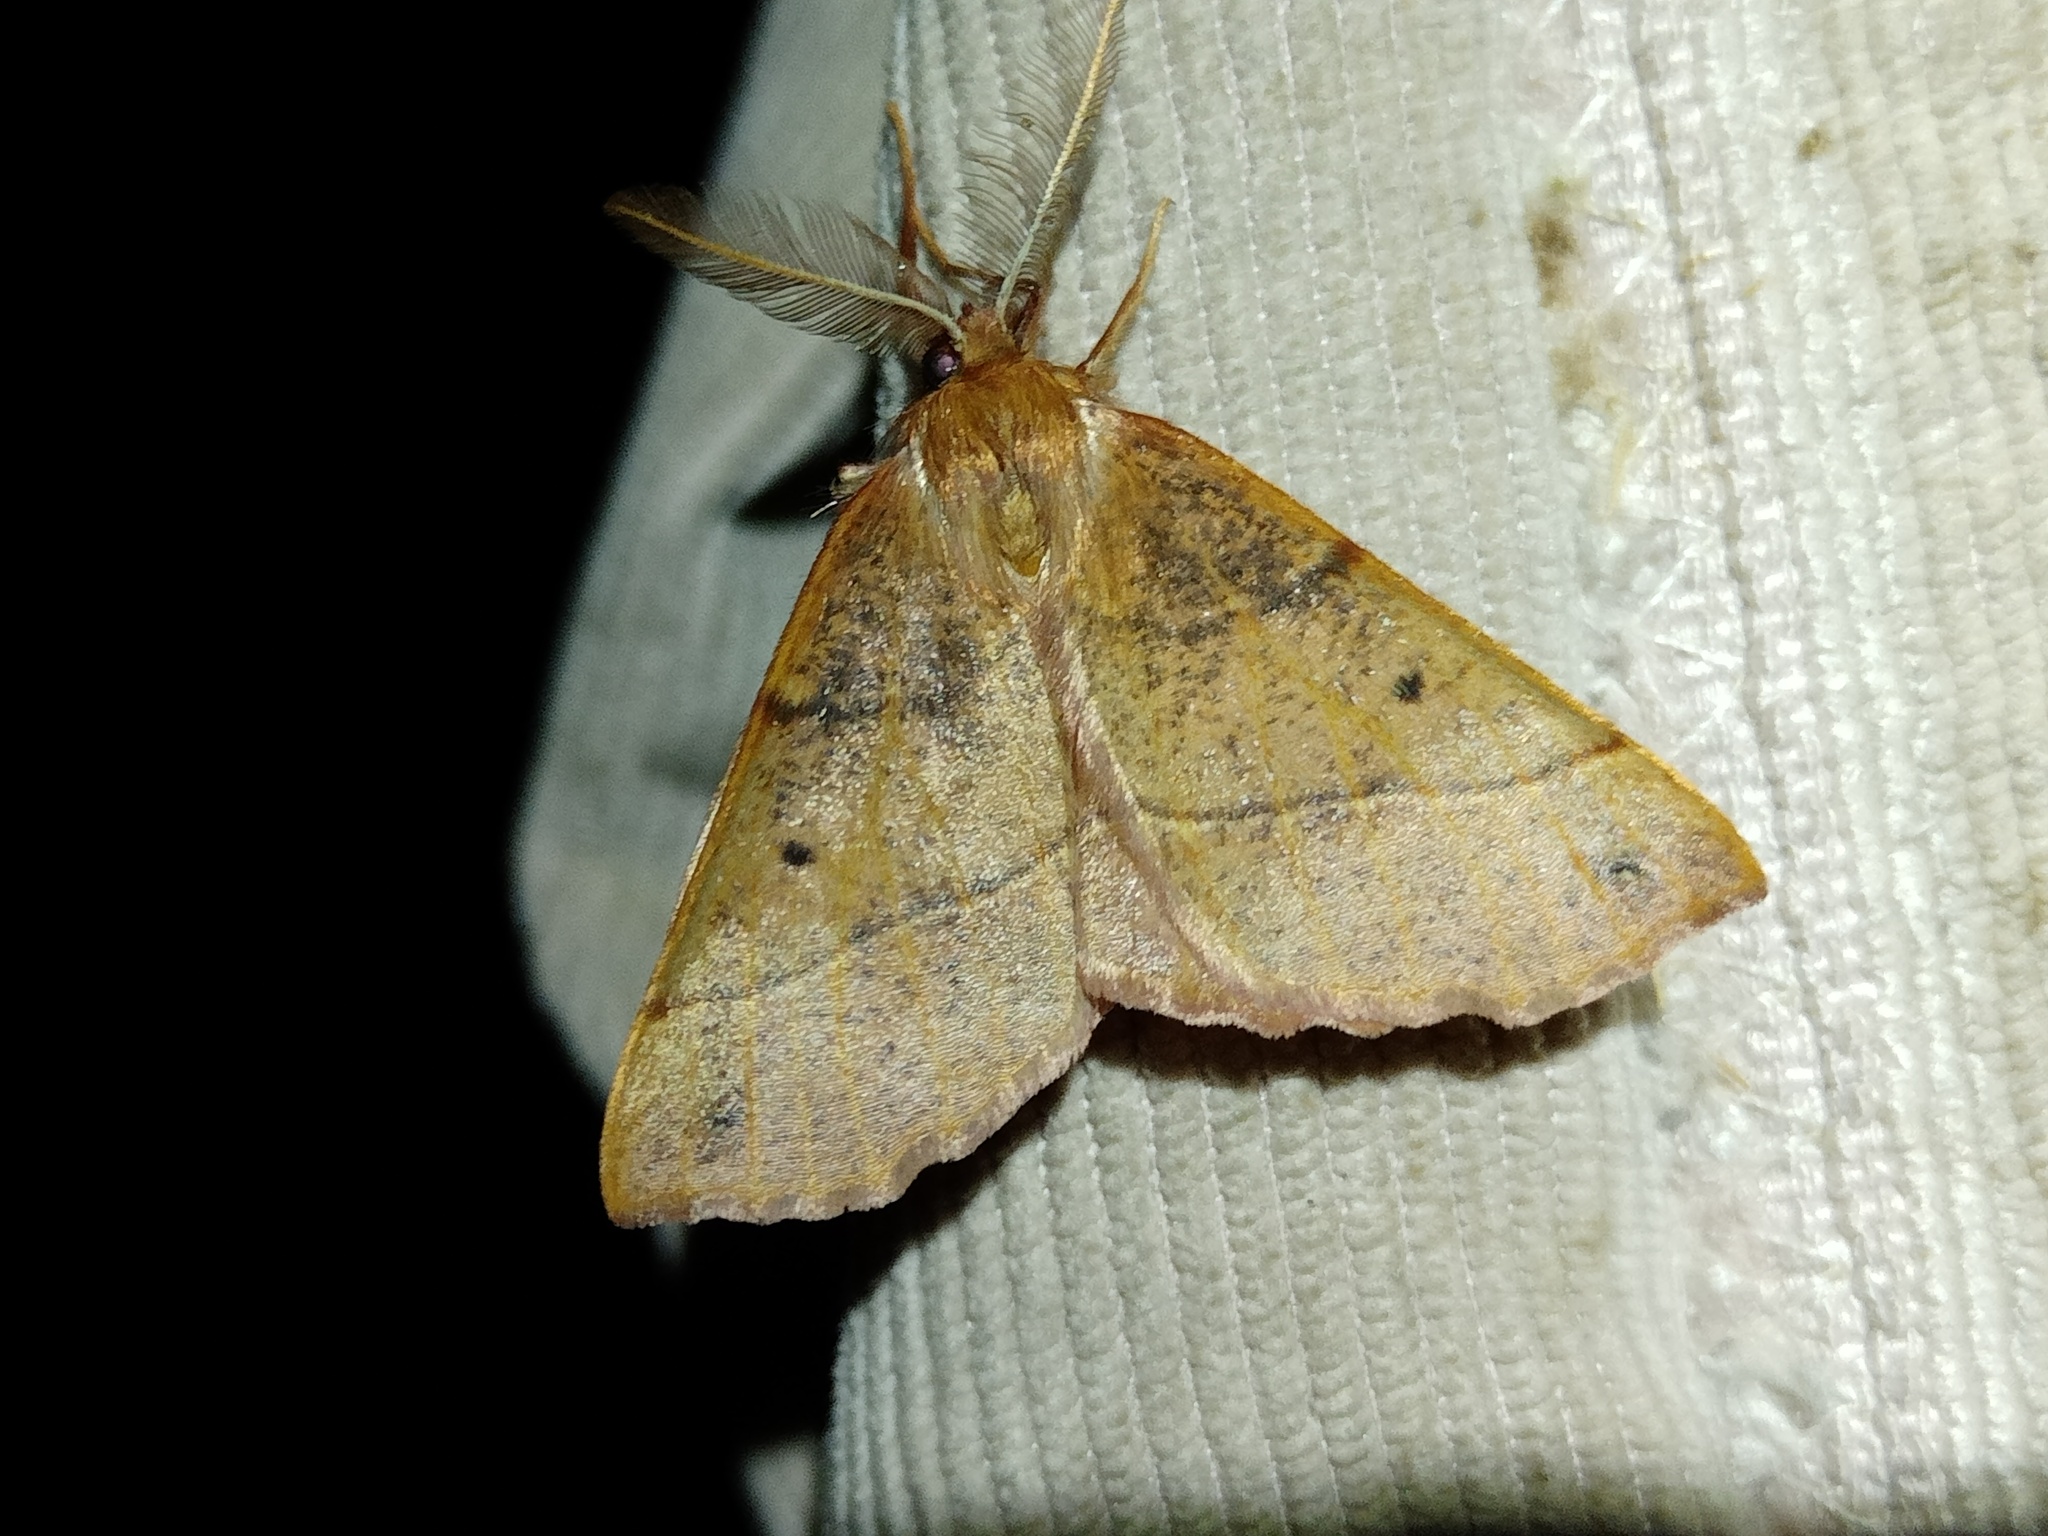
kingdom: Animalia
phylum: Arthropoda
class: Insecta
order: Lepidoptera
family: Geometridae
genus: Colotois
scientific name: Colotois pennaria
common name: Feathered thorn
